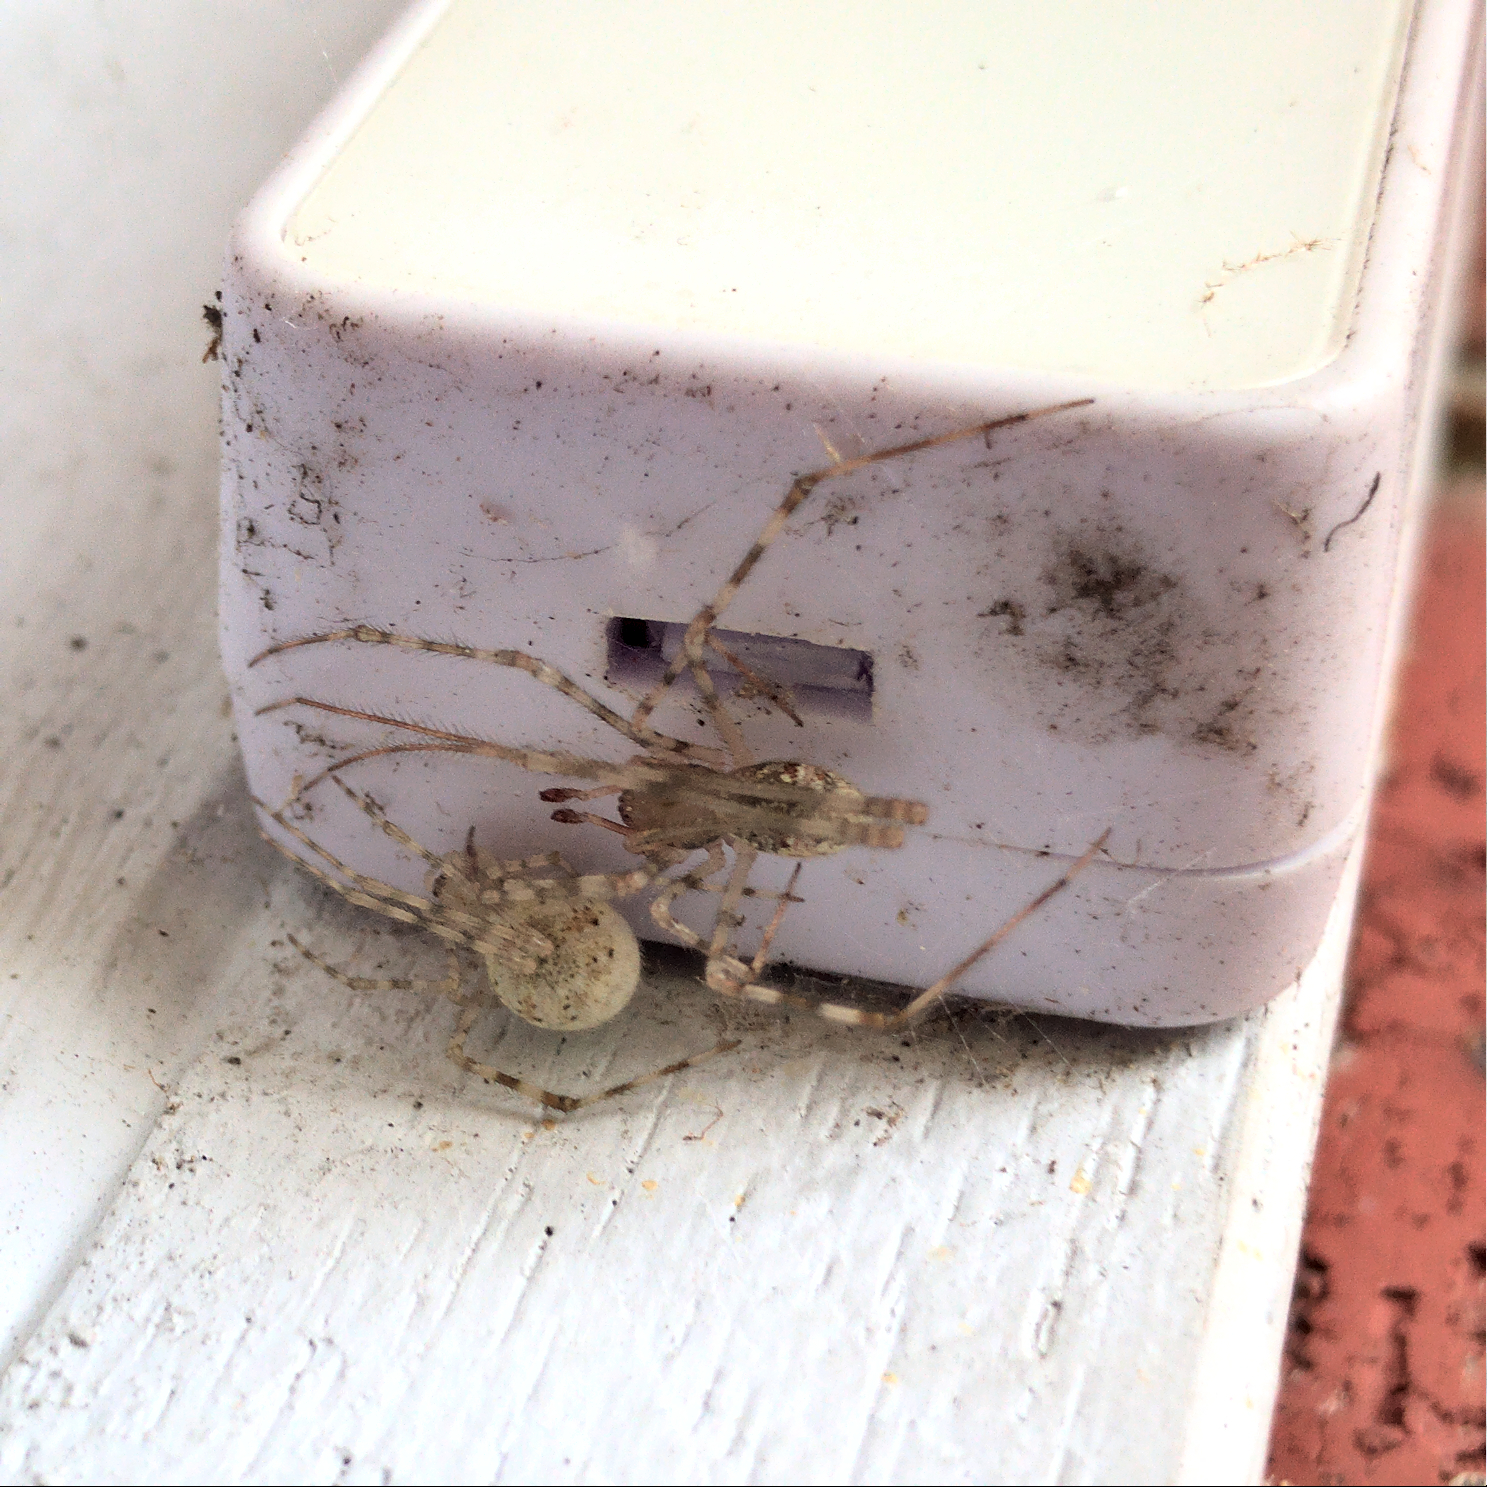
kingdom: Animalia
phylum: Arthropoda
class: Arachnida
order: Araneae
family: Theridiidae
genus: Cryptachaea
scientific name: Cryptachaea gigantipes
